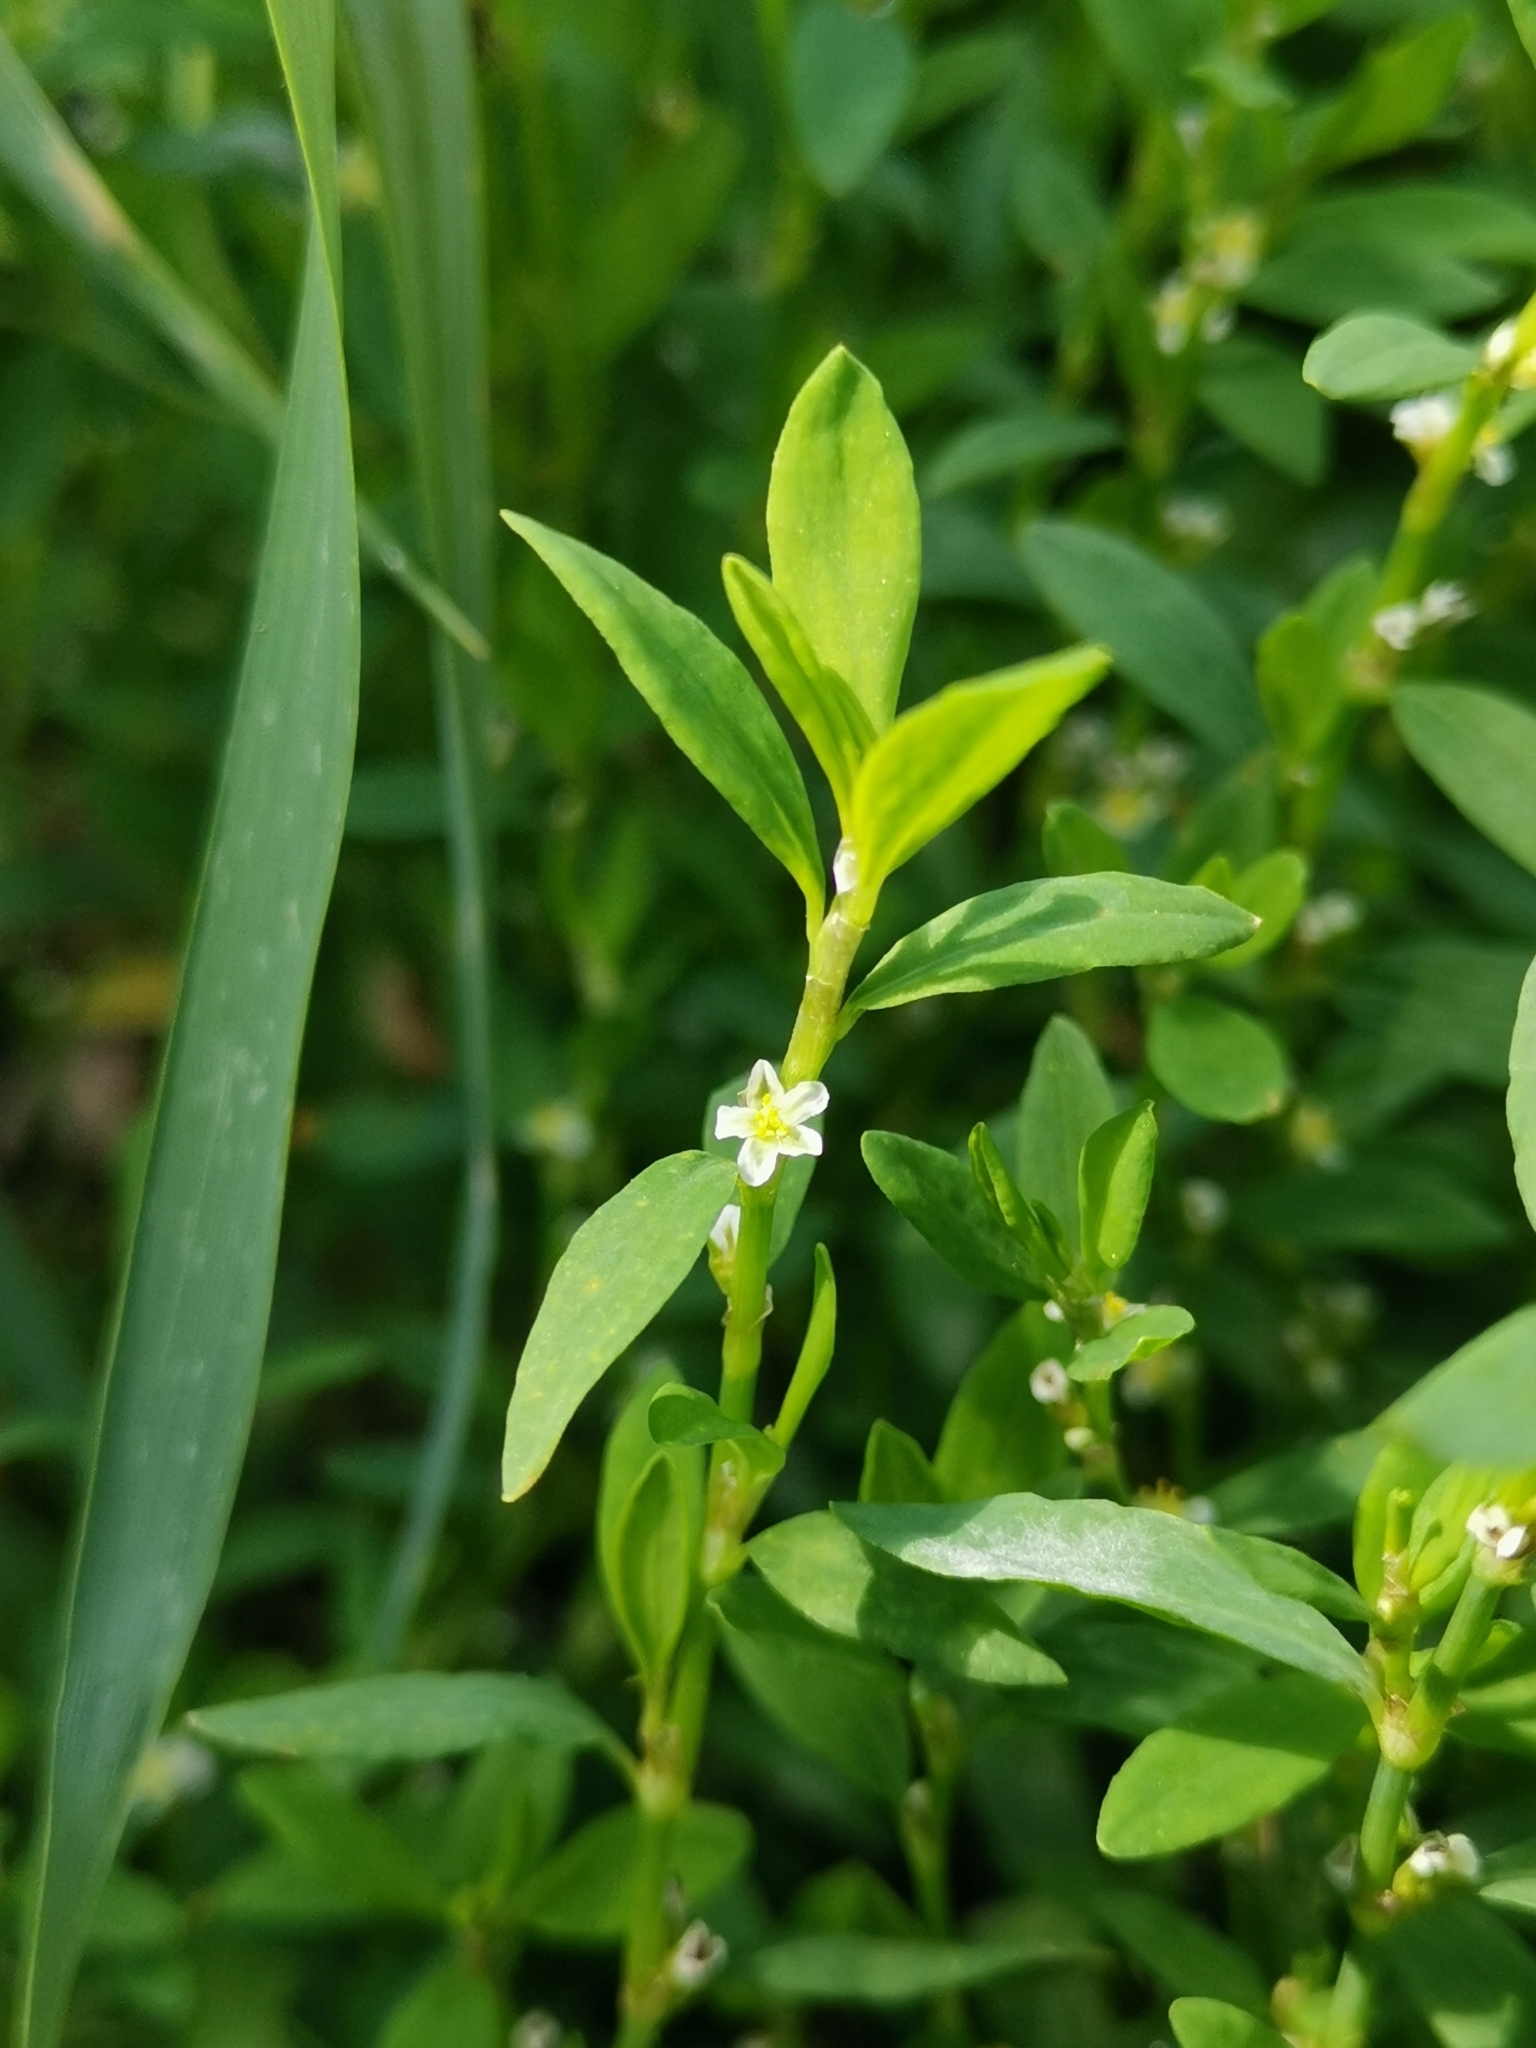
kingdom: Plantae
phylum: Tracheophyta
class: Magnoliopsida
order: Caryophyllales
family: Polygonaceae
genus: Polygonum
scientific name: Polygonum aviculare
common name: Prostrate knotweed
